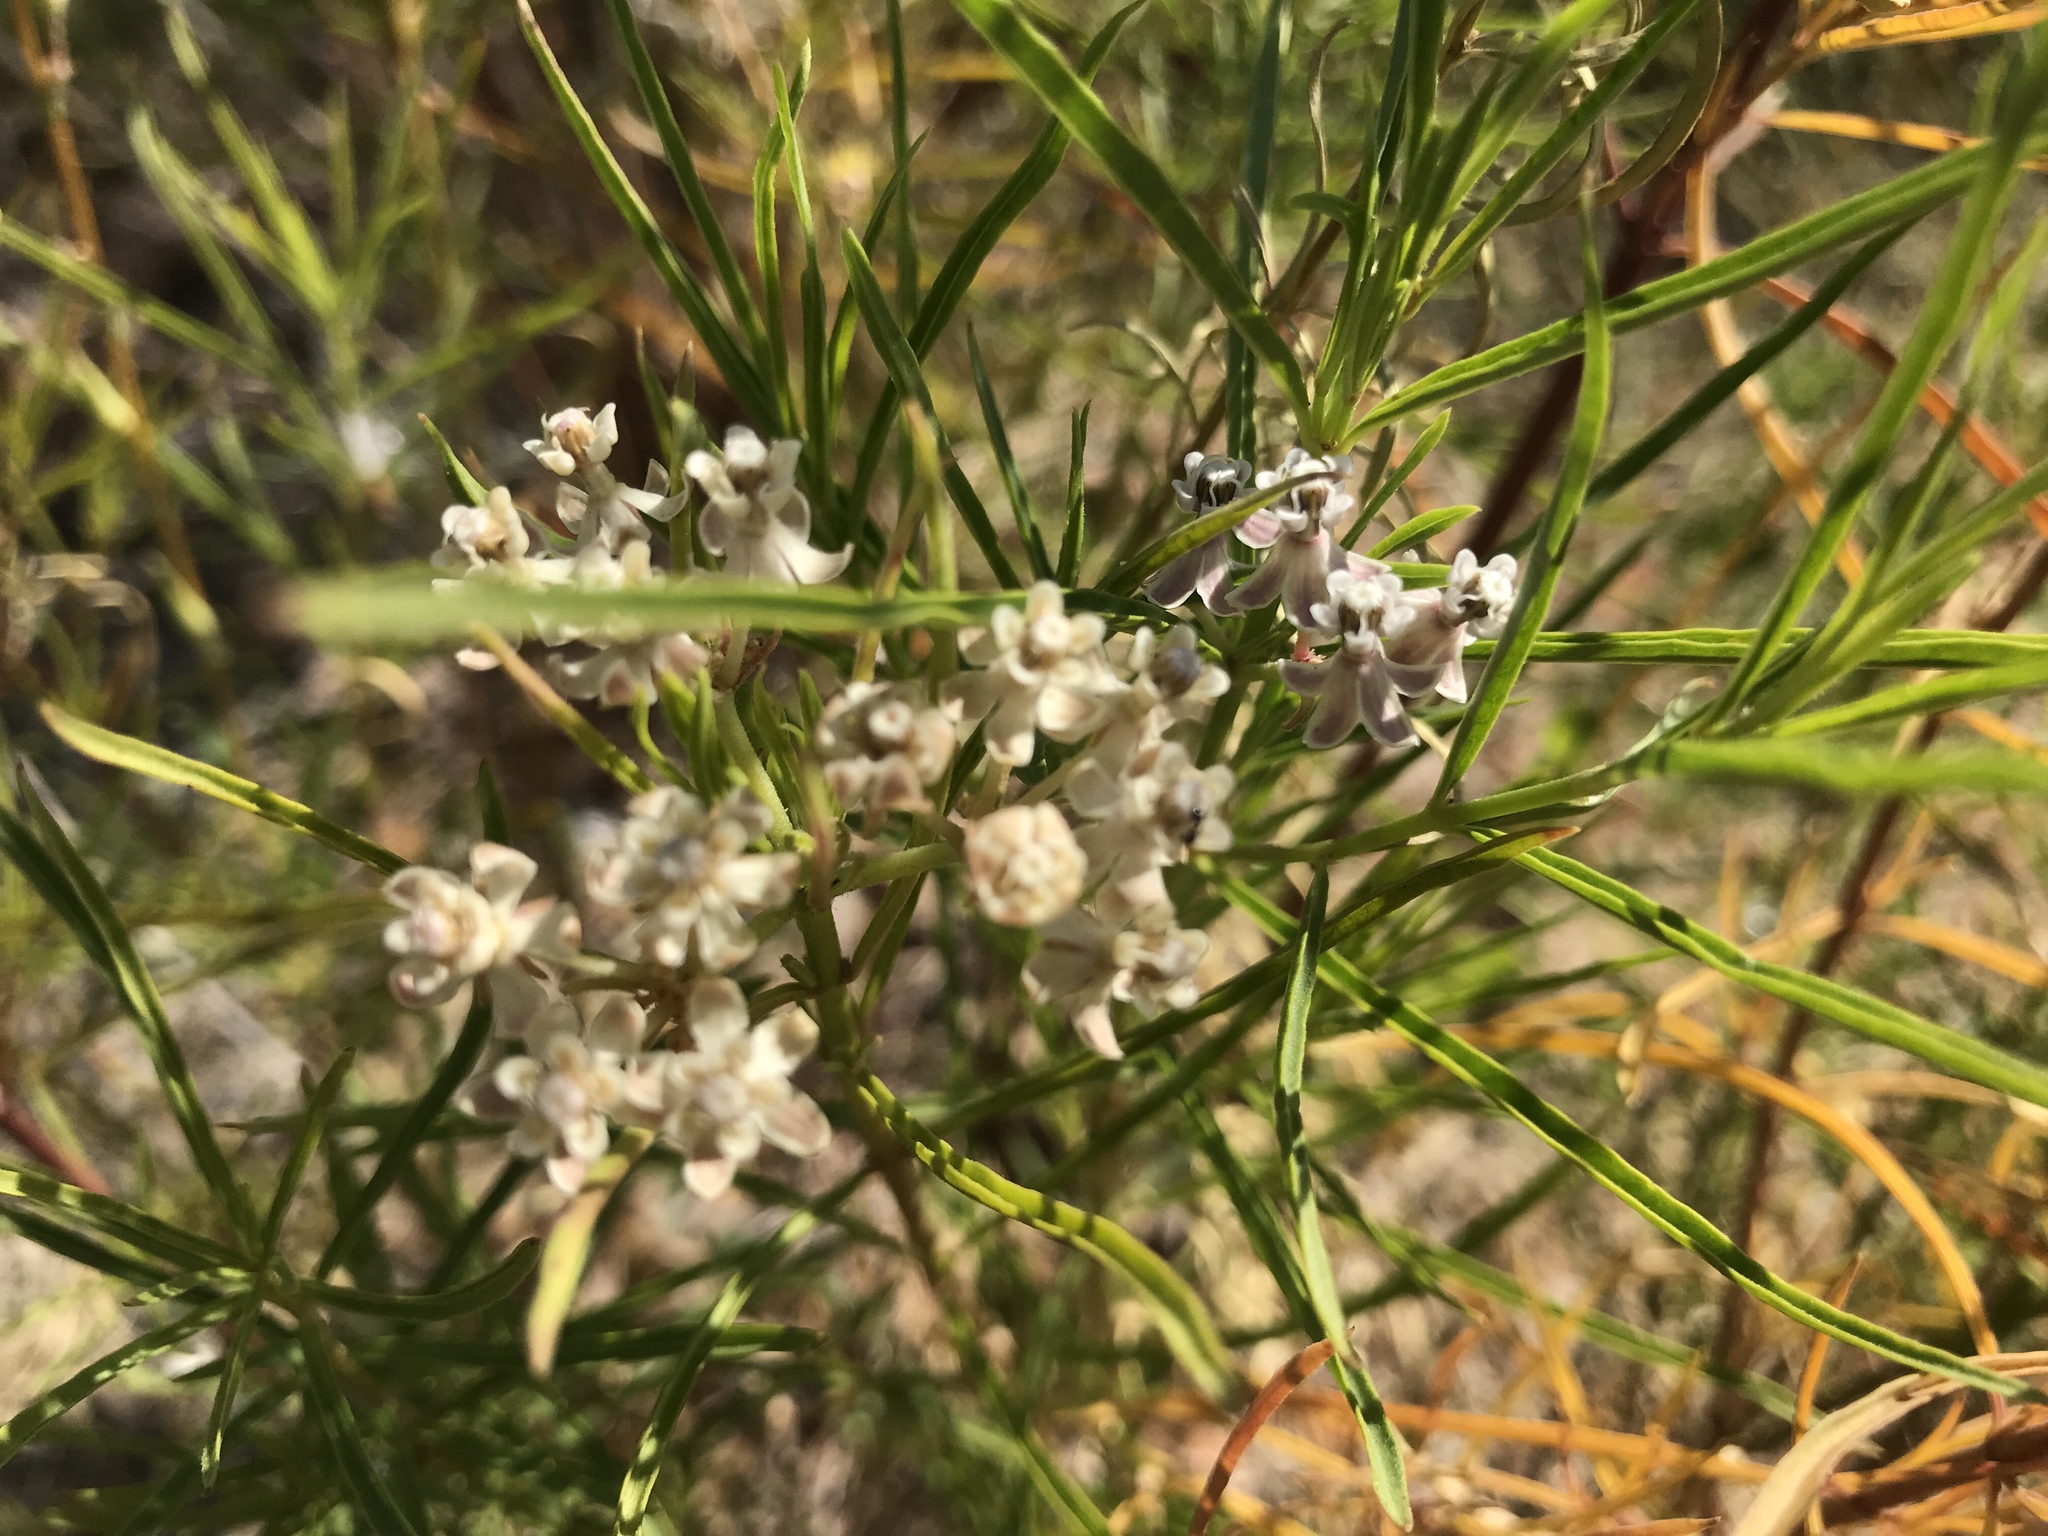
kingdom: Plantae
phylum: Tracheophyta
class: Magnoliopsida
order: Gentianales
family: Apocynaceae
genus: Asclepias
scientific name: Asclepias fascicularis
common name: Mexican milkweed
